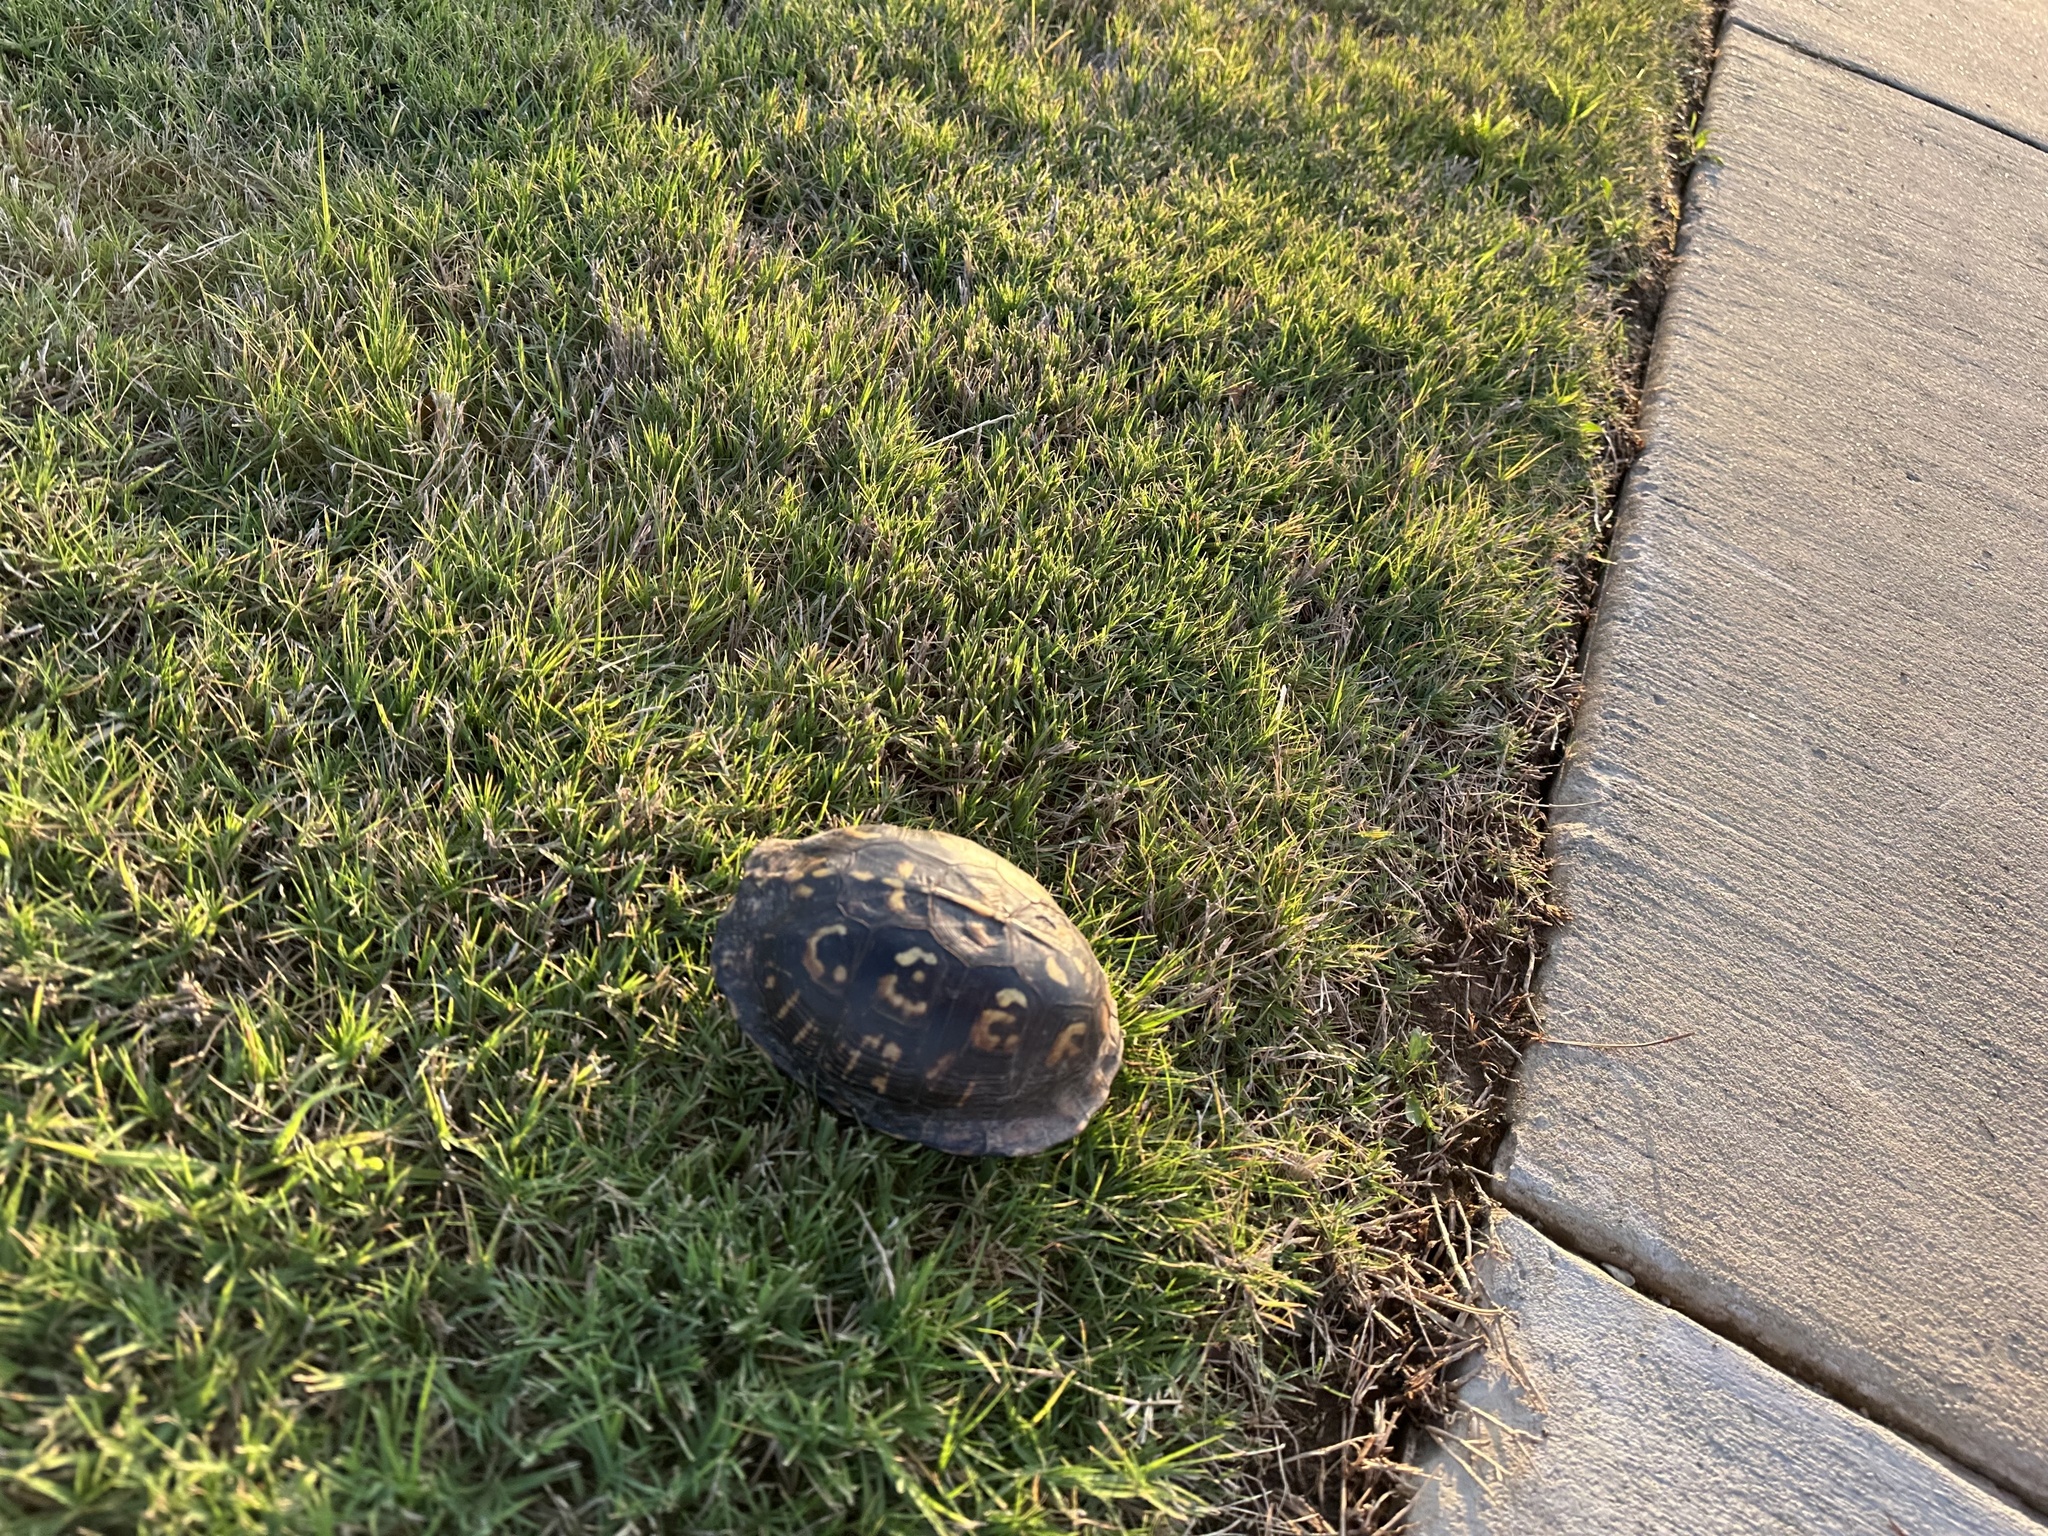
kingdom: Animalia
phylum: Chordata
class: Testudines
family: Emydidae
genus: Terrapene
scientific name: Terrapene carolina
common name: Common box turtle
